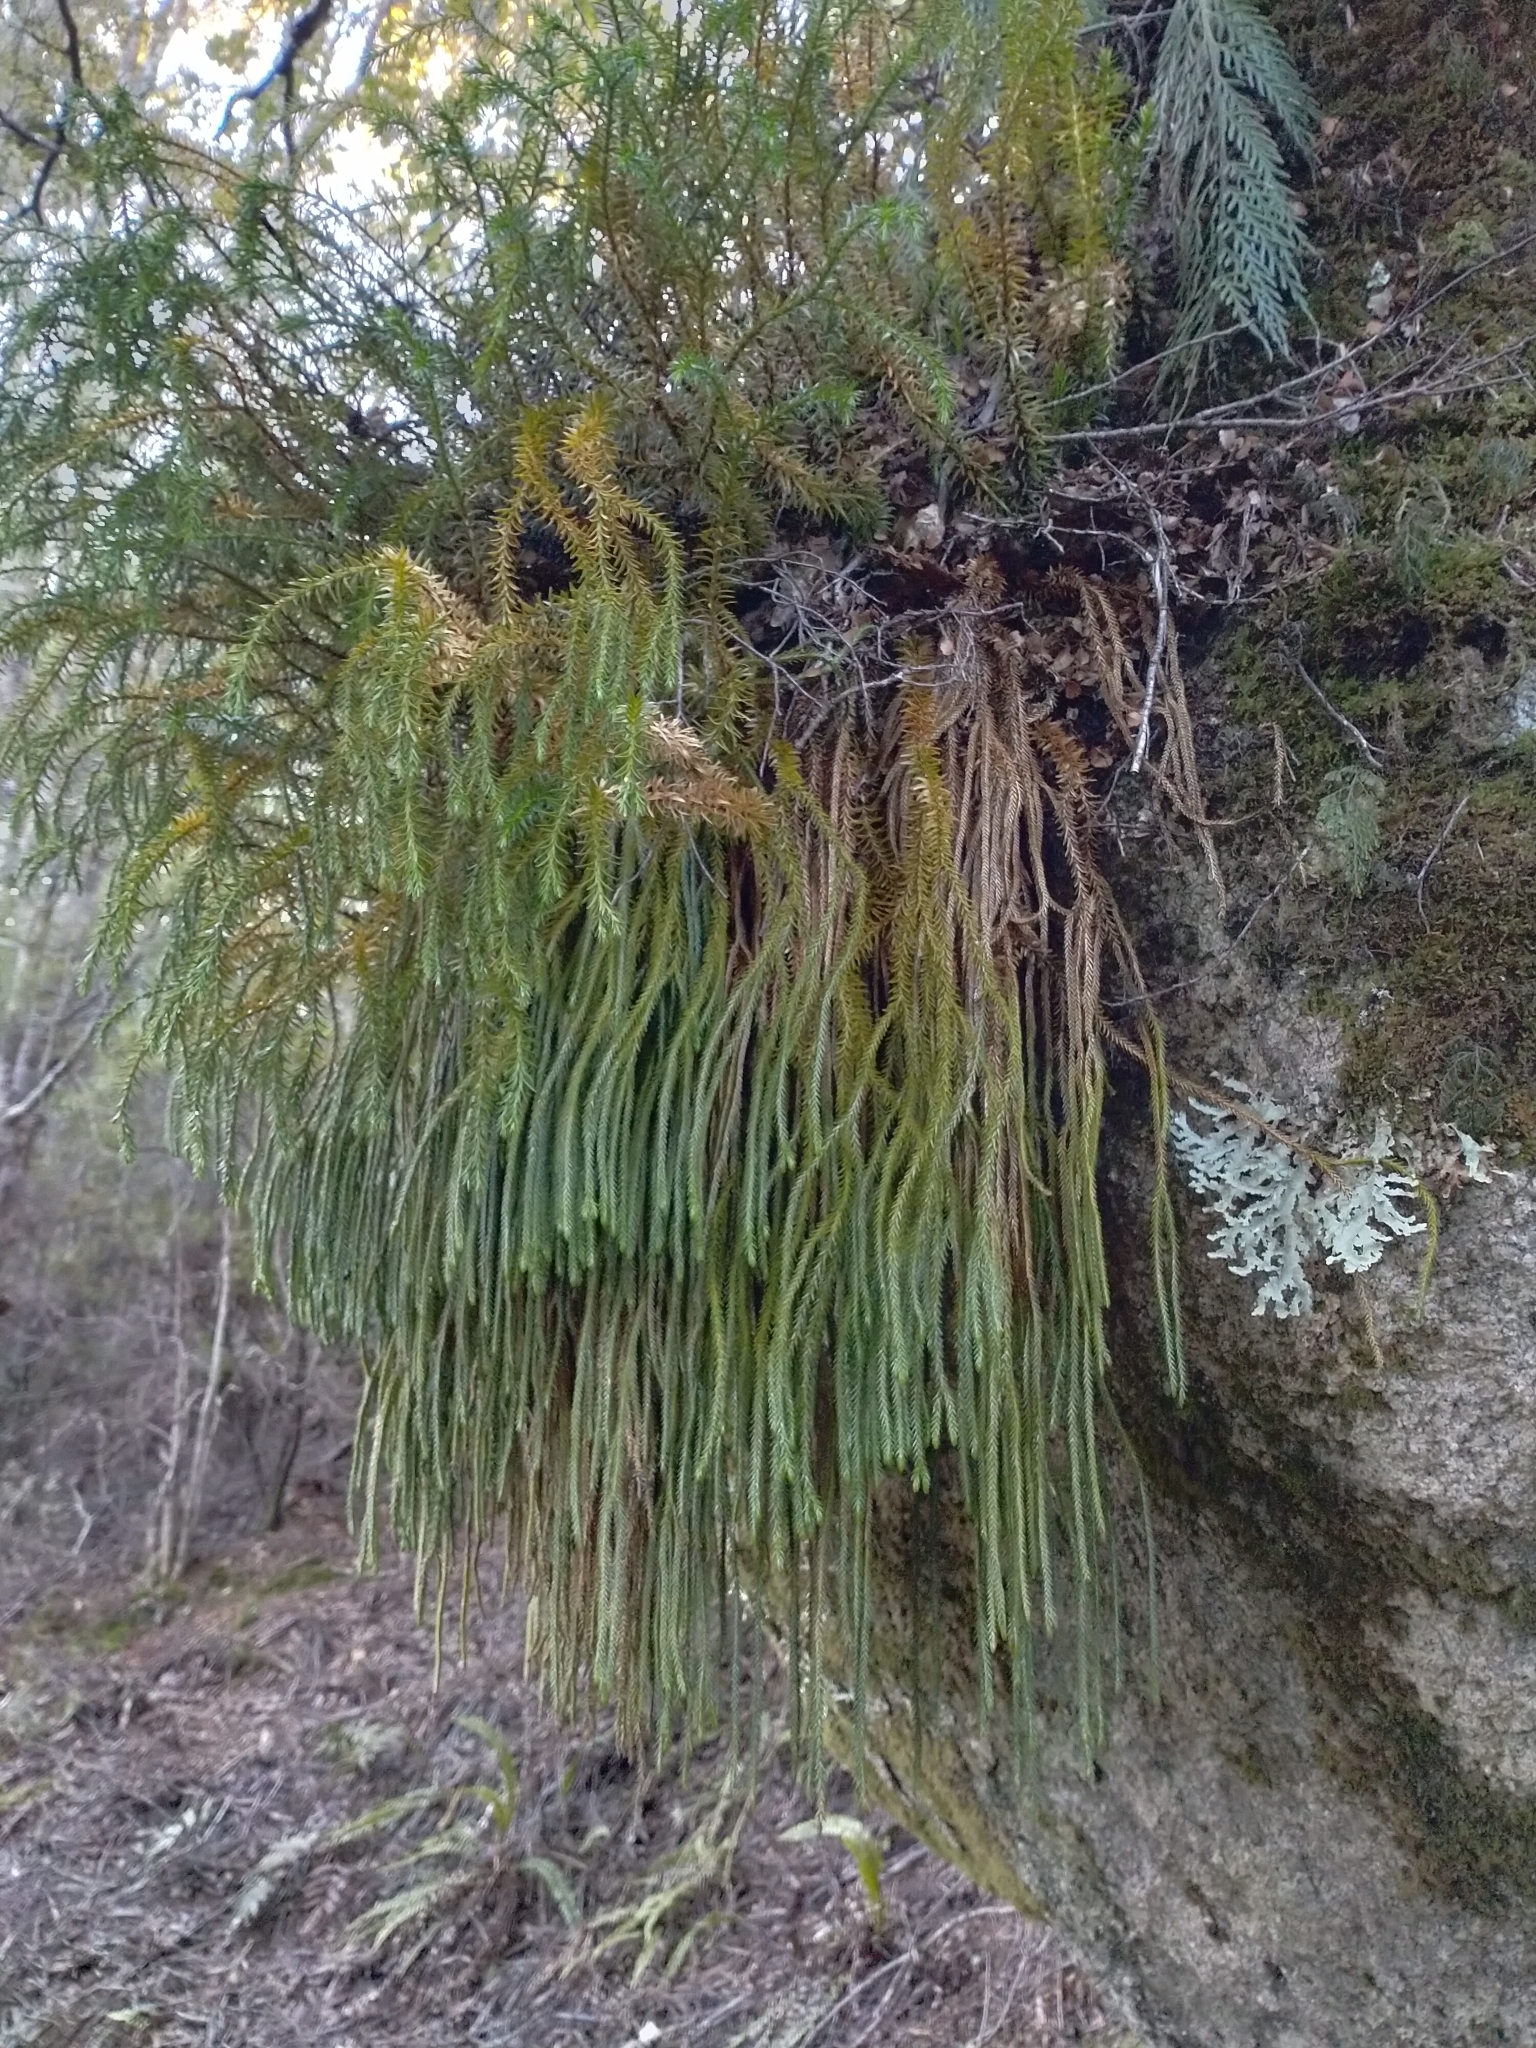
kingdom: Plantae
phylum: Tracheophyta
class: Lycopodiopsida
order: Lycopodiales
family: Lycopodiaceae
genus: Phlegmariurus
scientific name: Phlegmariurus varius
